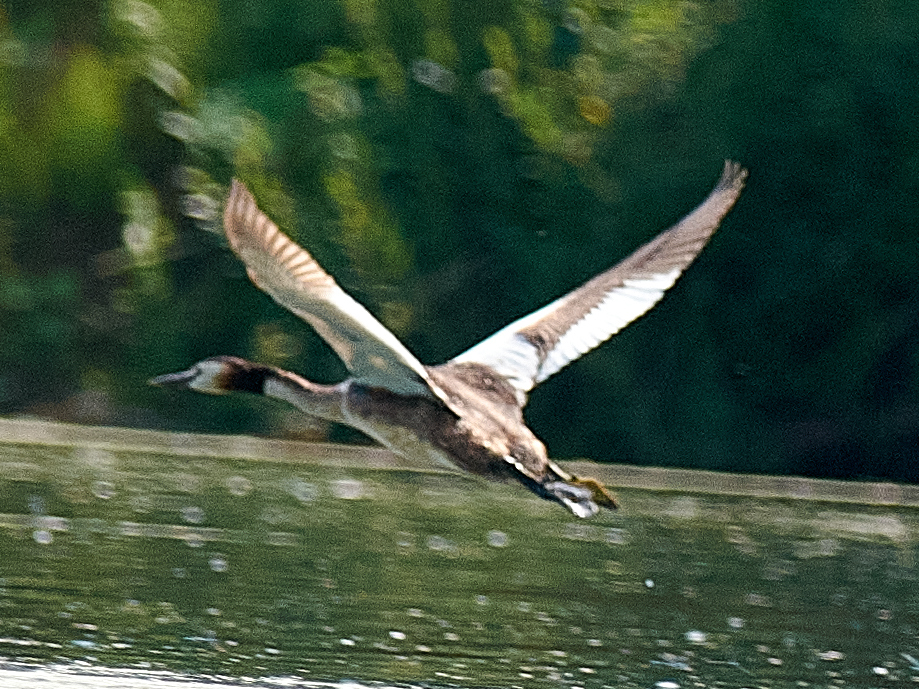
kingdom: Animalia
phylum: Chordata
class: Aves
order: Podicipediformes
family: Podicipedidae
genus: Podiceps
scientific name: Podiceps cristatus
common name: Great crested grebe
